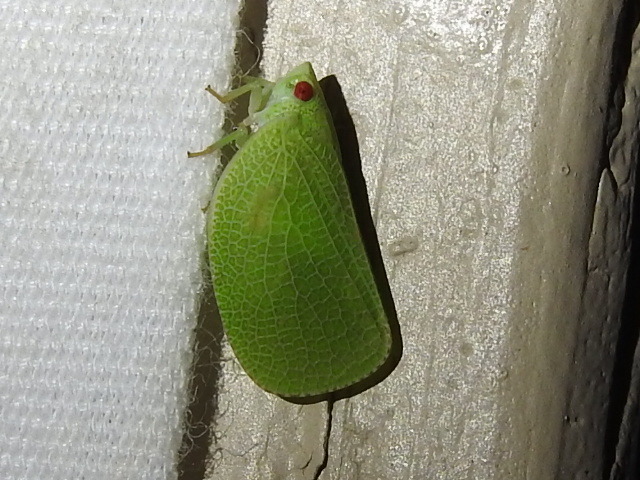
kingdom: Animalia
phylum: Arthropoda
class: Insecta
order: Hemiptera
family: Acanaloniidae
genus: Acanalonia
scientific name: Acanalonia conica
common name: Green cone-headed planthopper
